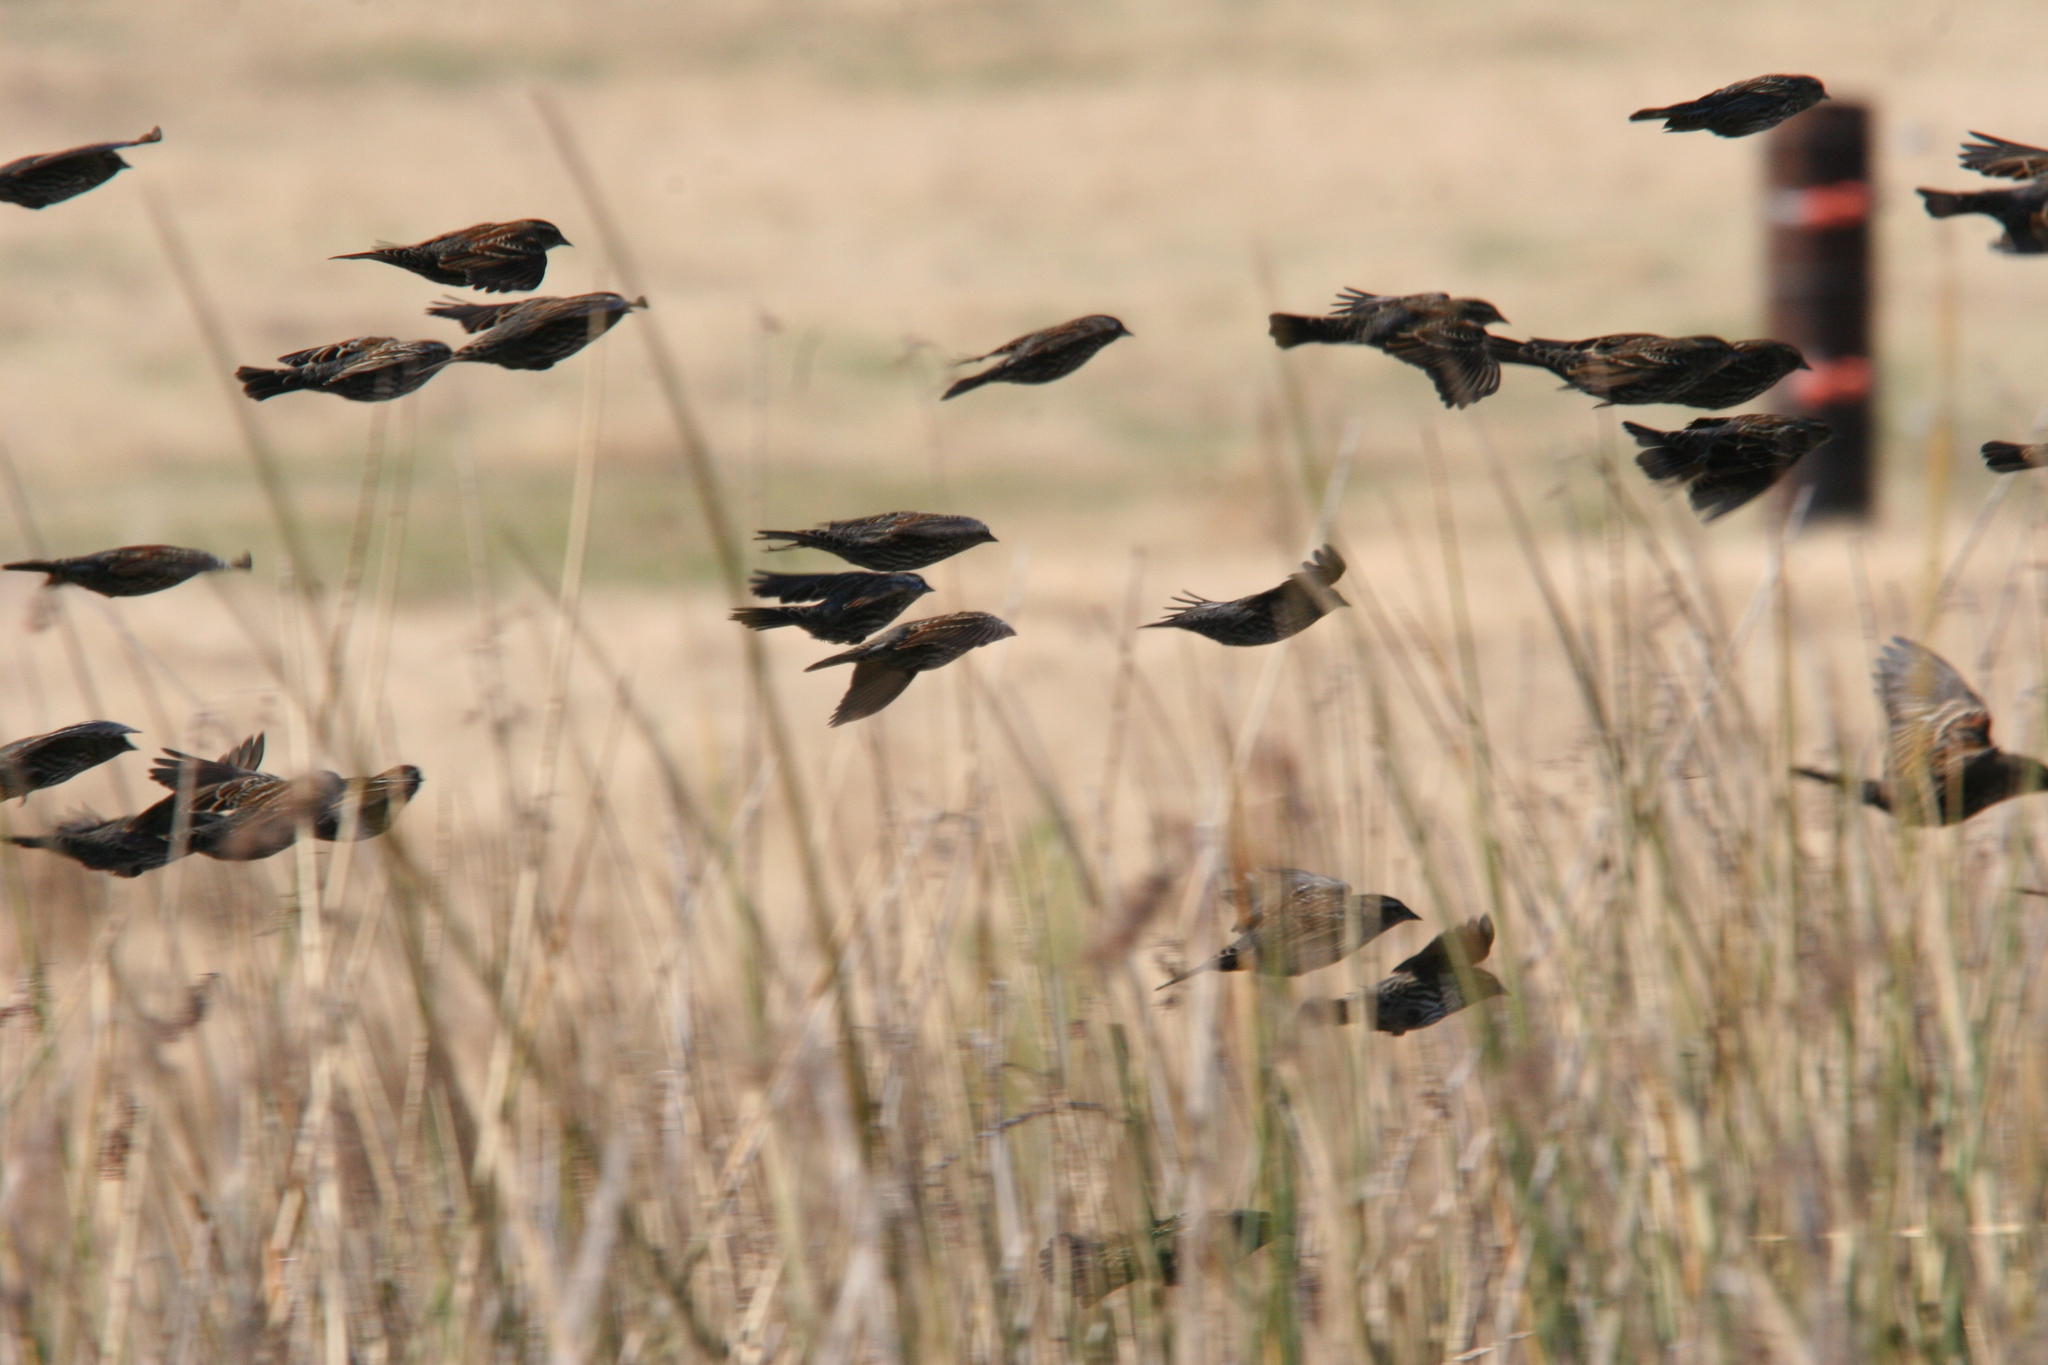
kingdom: Animalia
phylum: Chordata
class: Aves
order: Passeriformes
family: Icteridae
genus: Agelaius
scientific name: Agelaius phoeniceus
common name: Red-winged blackbird
